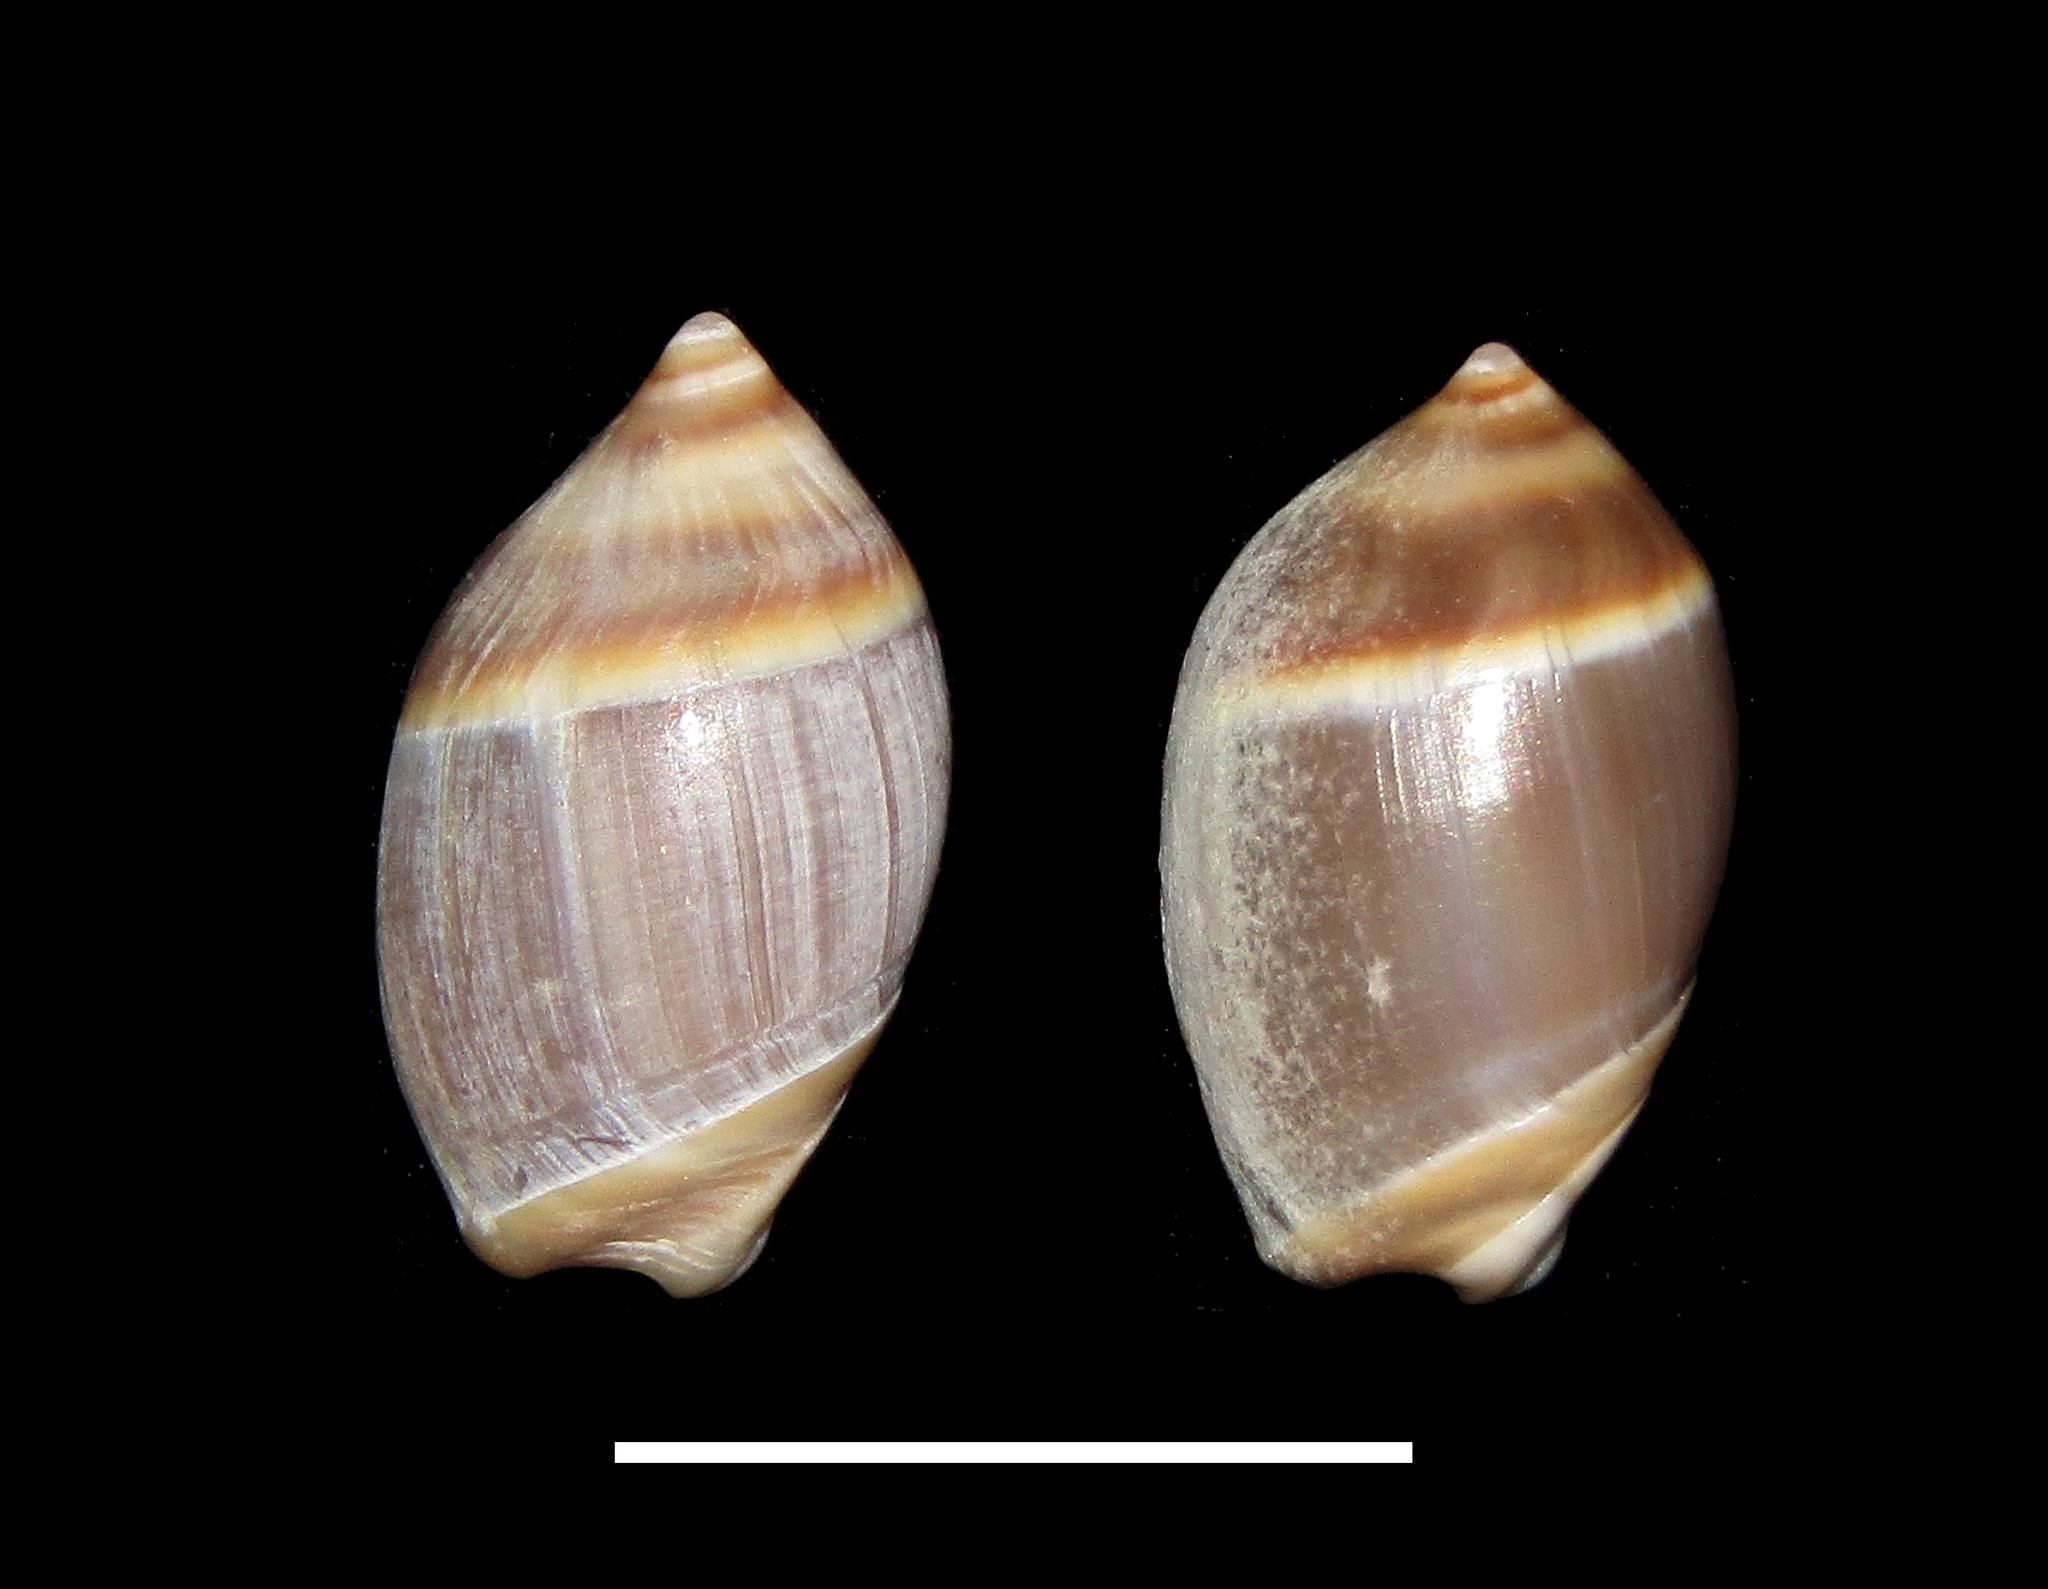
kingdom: Animalia
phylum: Mollusca
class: Gastropoda
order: Neogastropoda
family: Ancillariidae
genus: Amalda
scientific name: Amalda depressa
